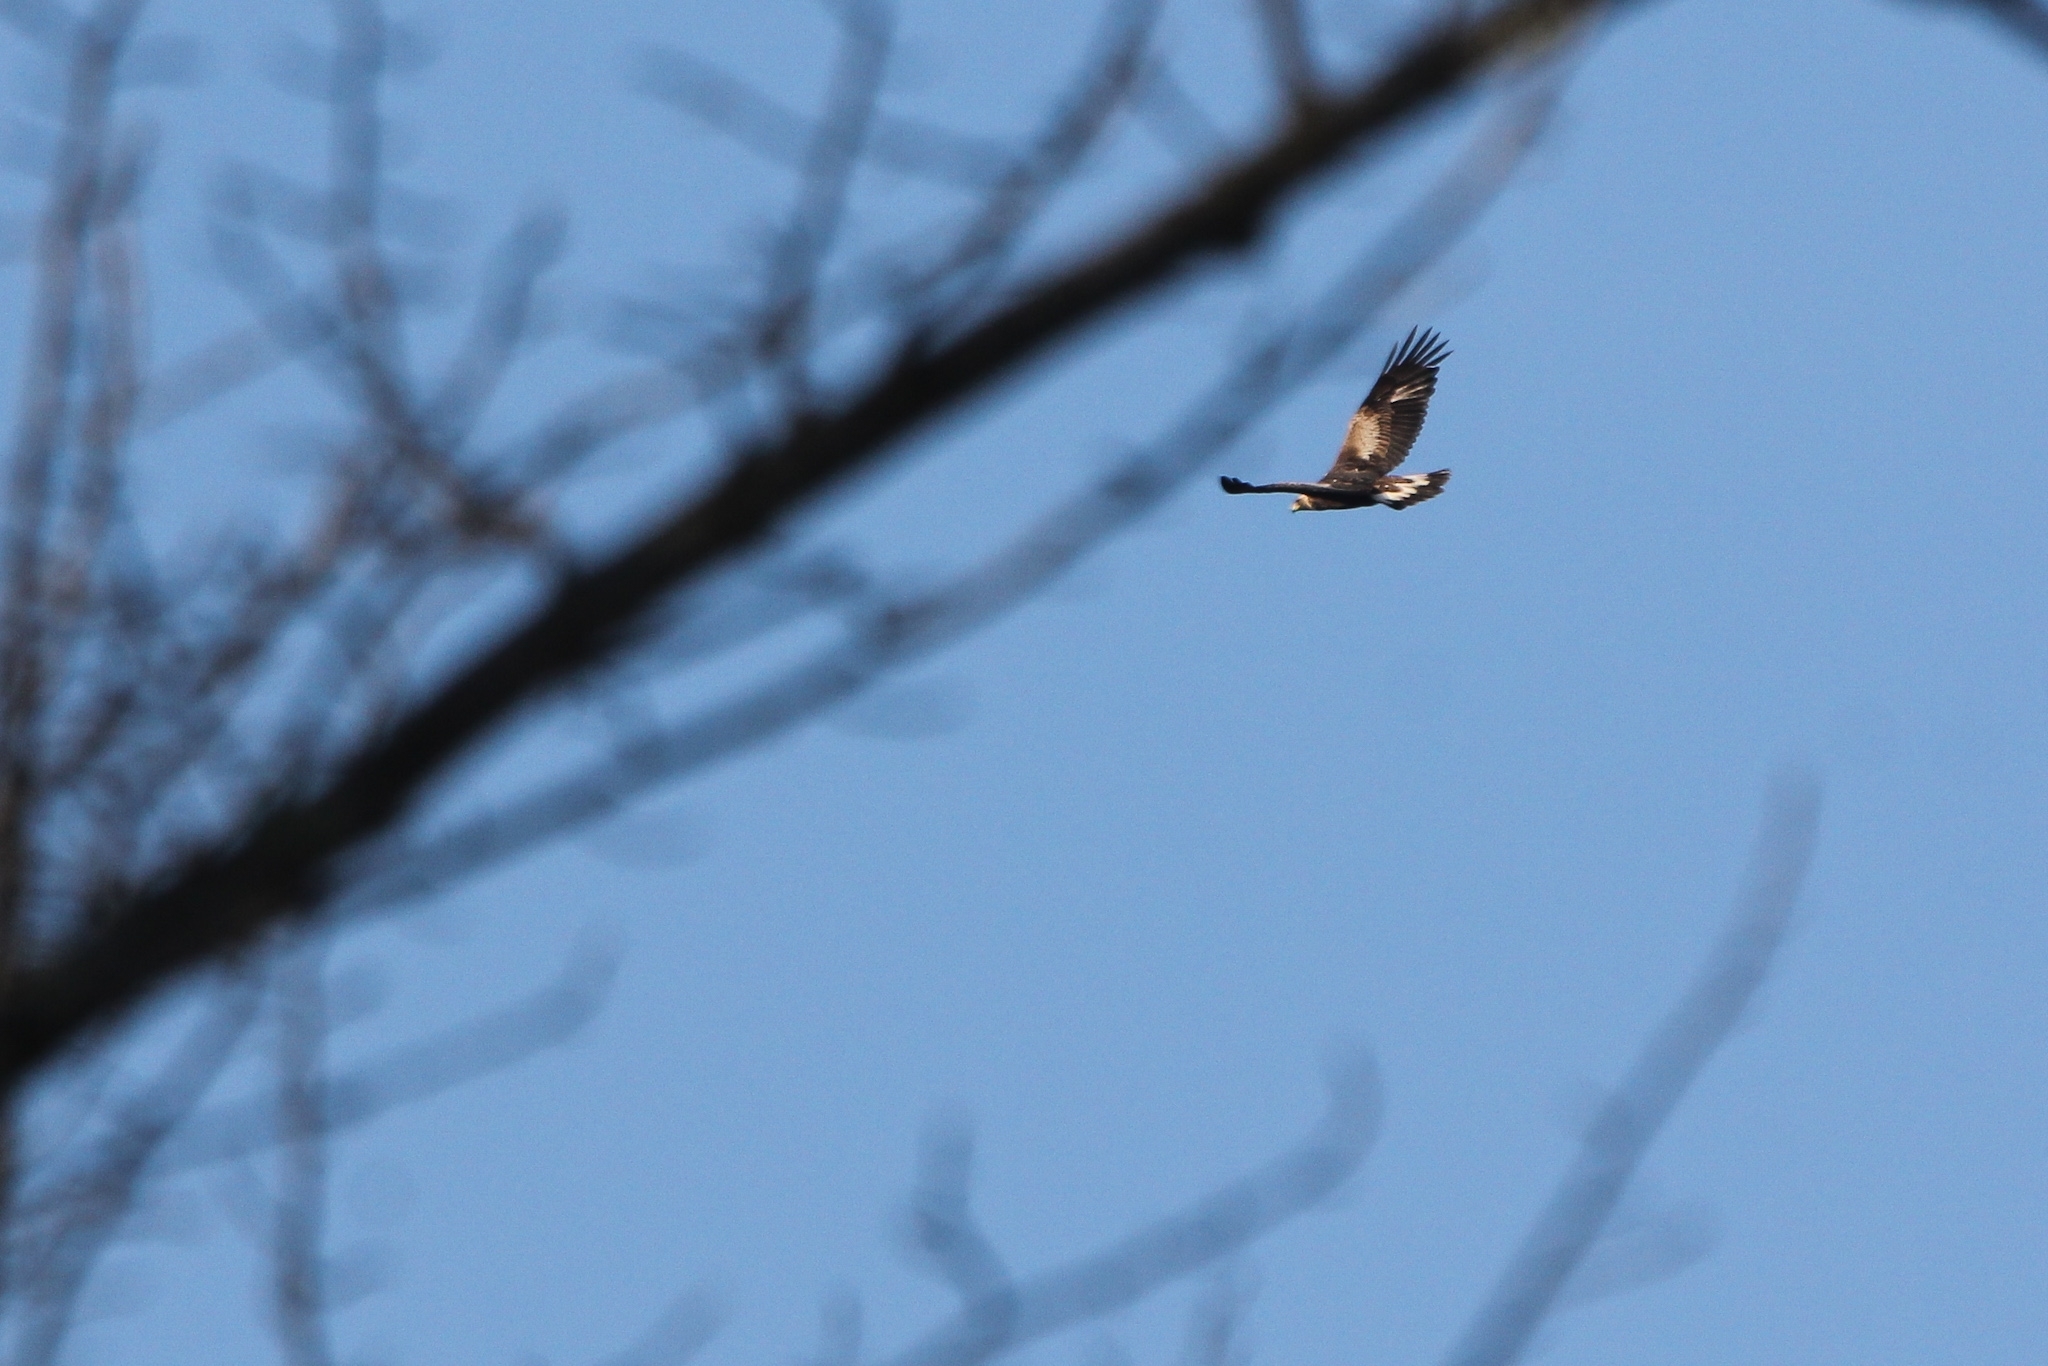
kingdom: Animalia
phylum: Chordata
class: Aves
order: Accipitriformes
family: Accipitridae
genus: Aquila
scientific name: Aquila chrysaetos
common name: Golden eagle
